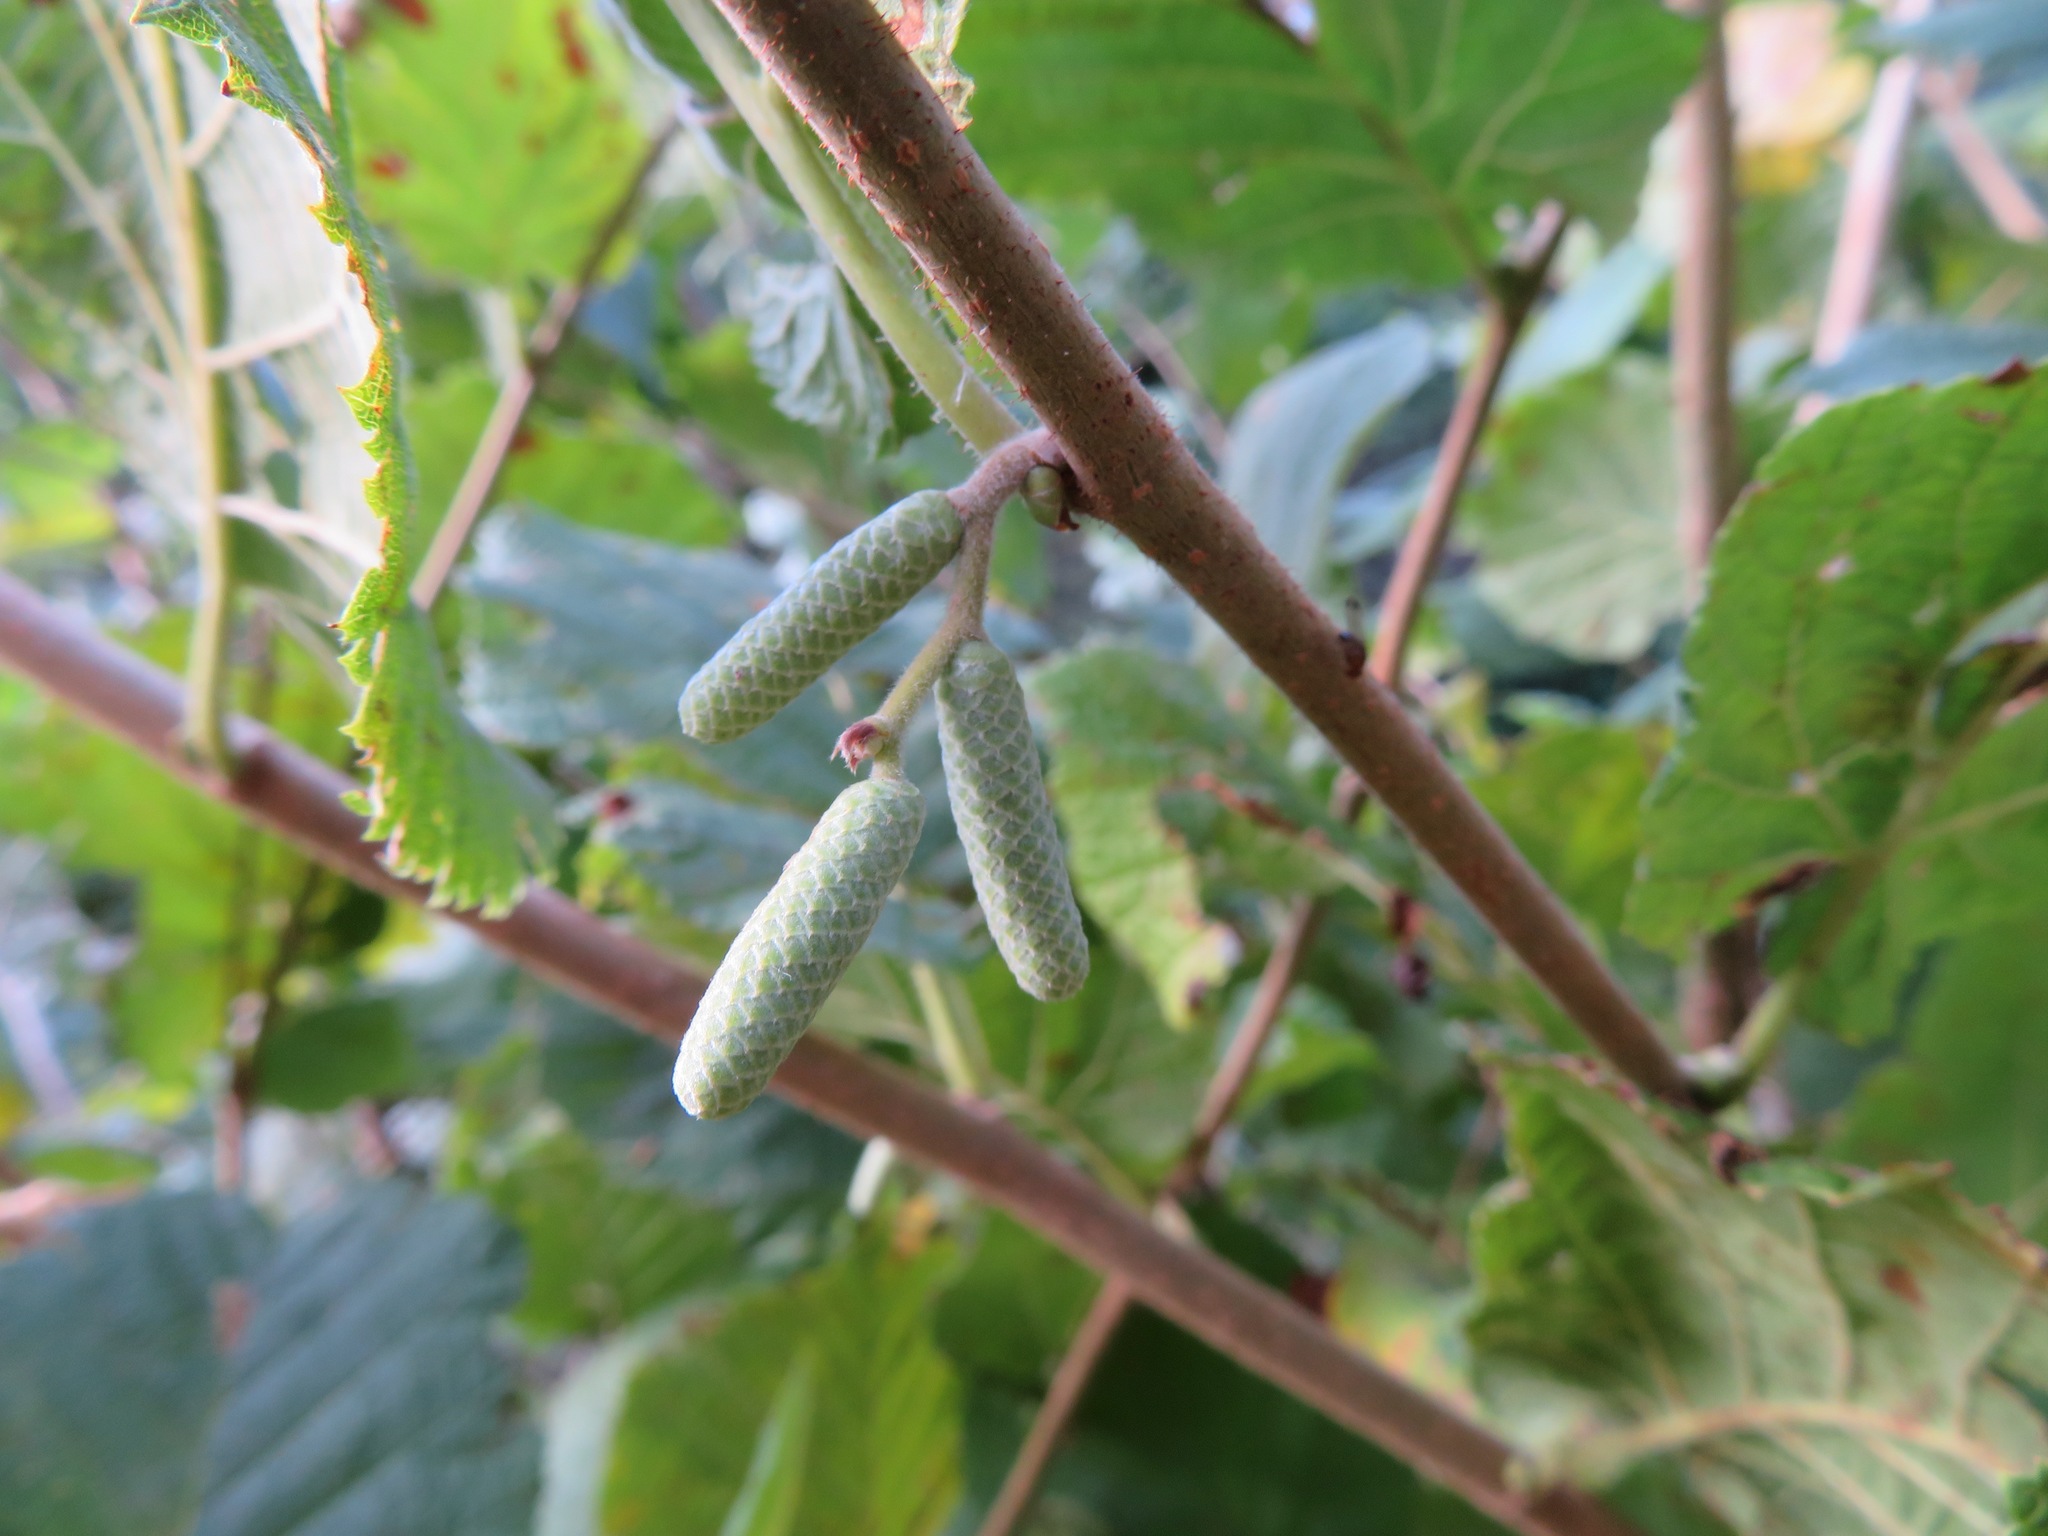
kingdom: Plantae
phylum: Tracheophyta
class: Magnoliopsida
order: Fagales
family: Betulaceae
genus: Corylus
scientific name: Corylus avellana
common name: European hazel
